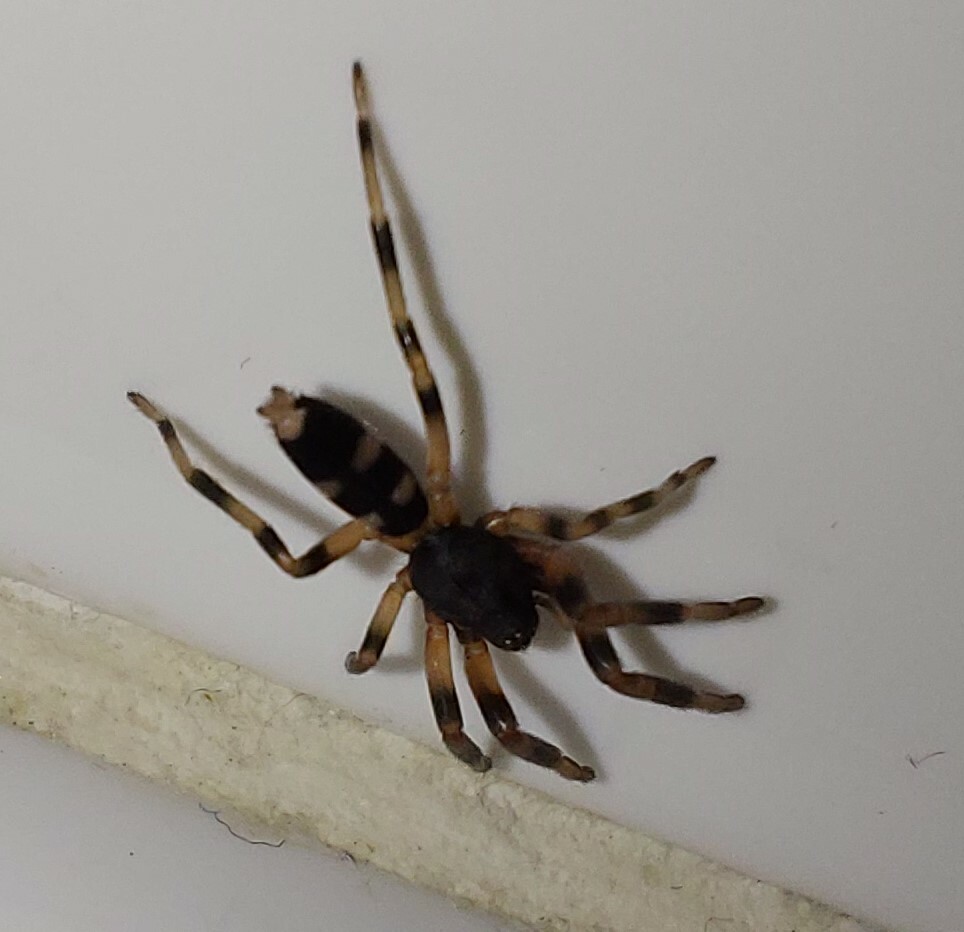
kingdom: Animalia
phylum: Arthropoda
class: Arachnida
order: Araneae
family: Lamponidae
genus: Lampona
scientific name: Lampona murina
